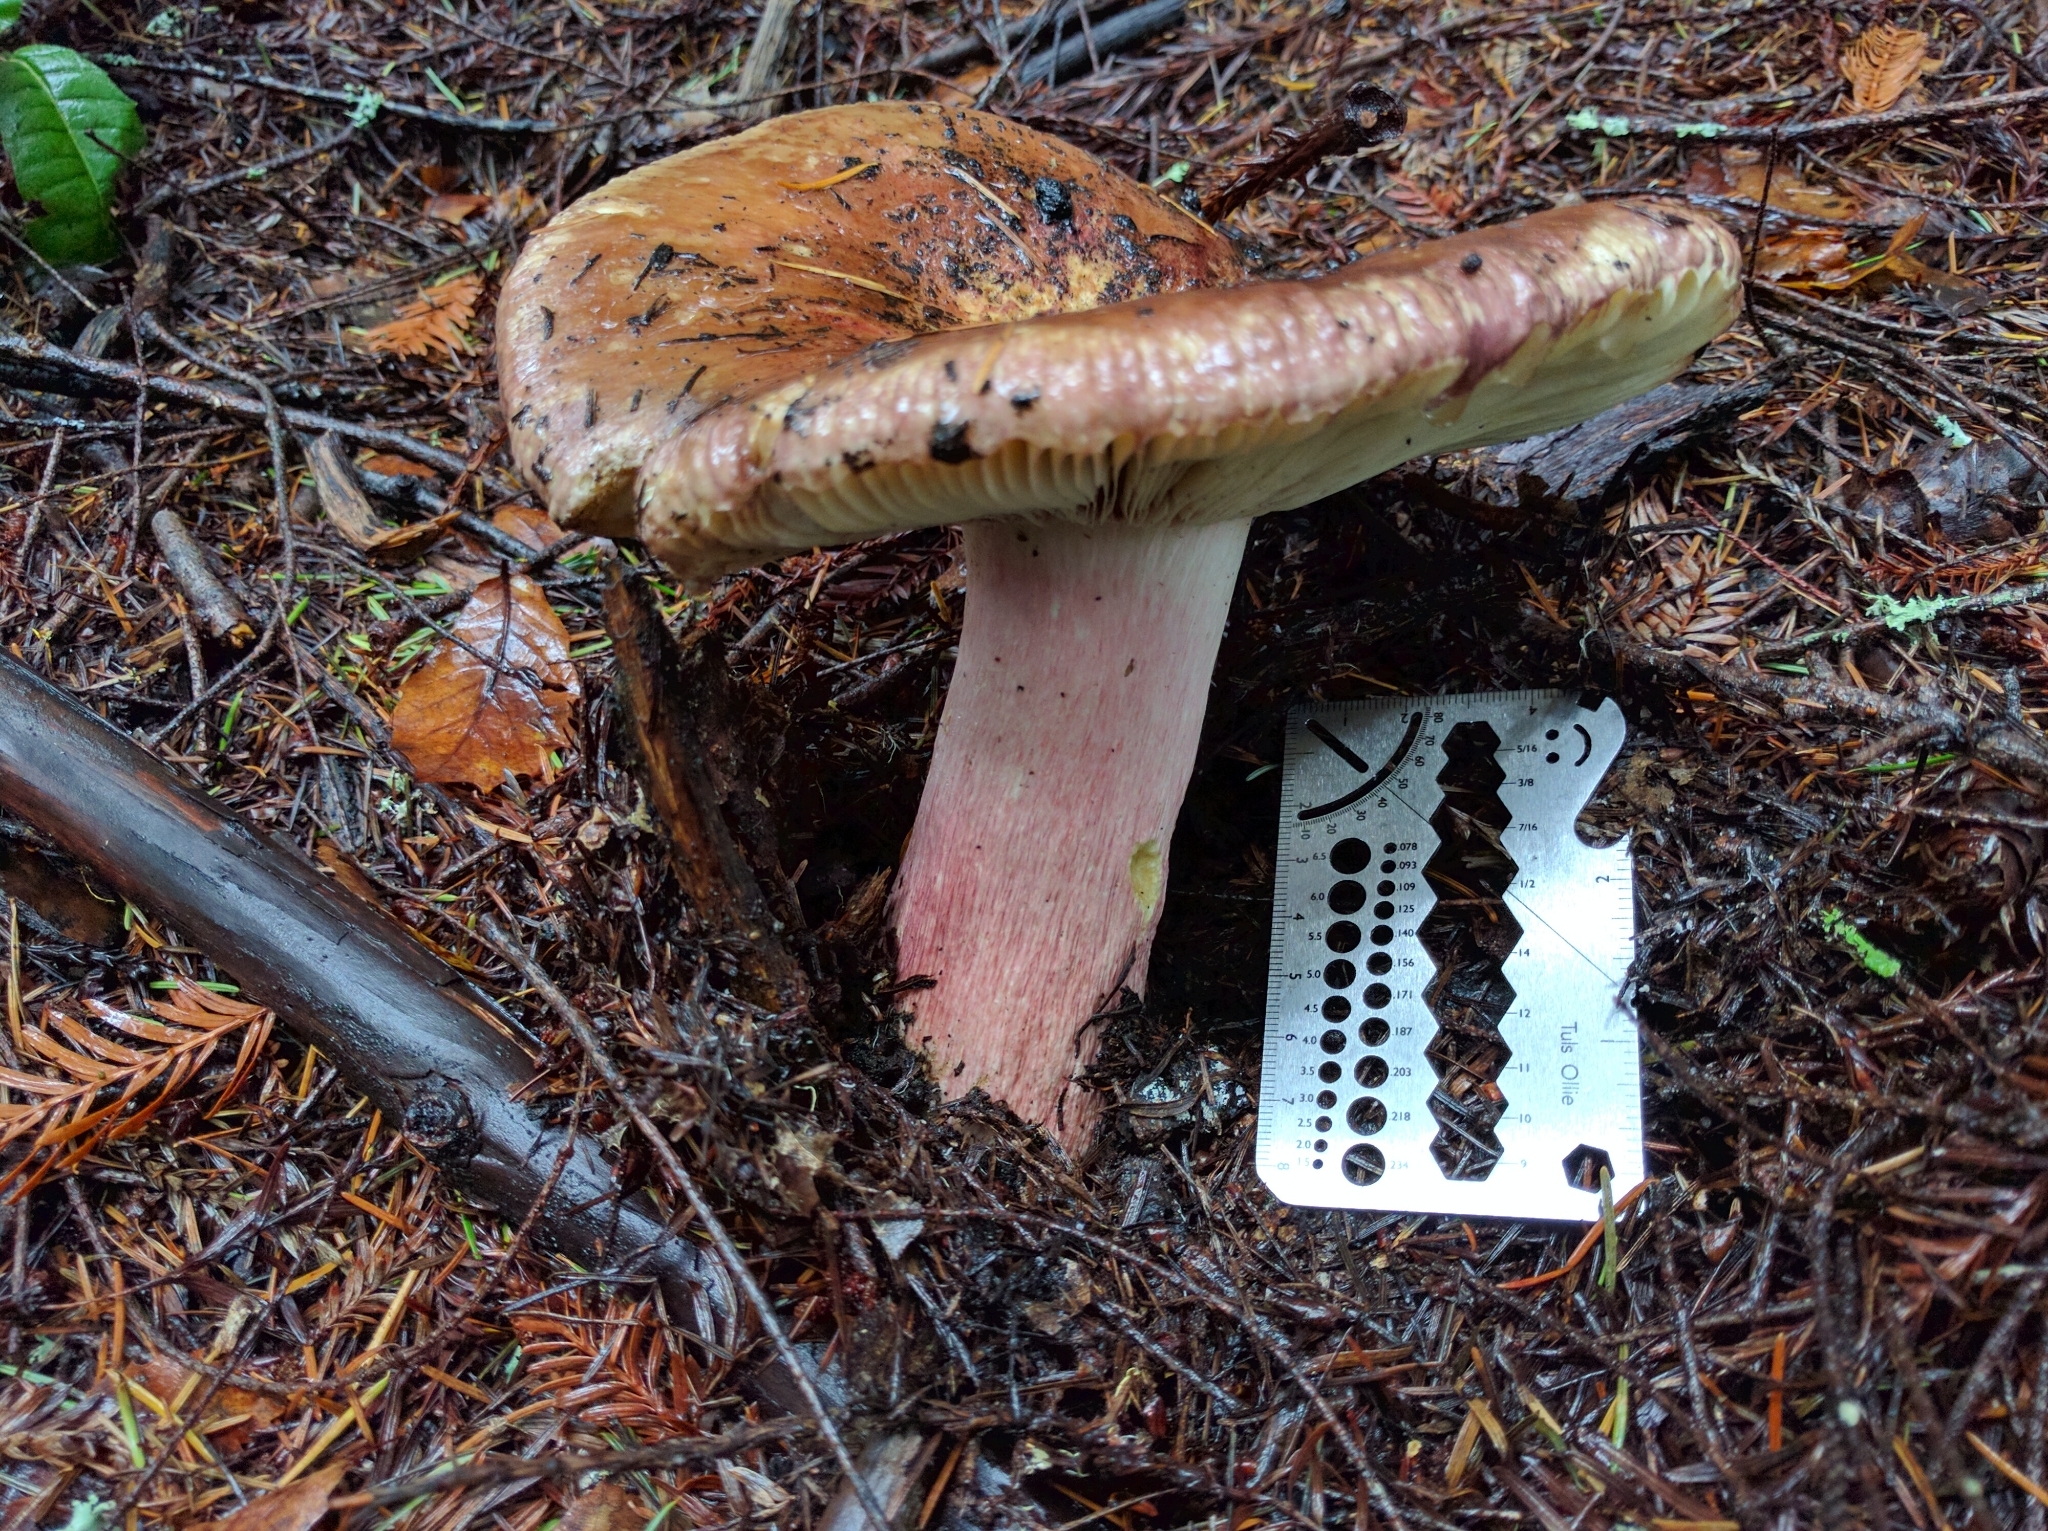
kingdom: Fungi
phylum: Basidiomycota
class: Agaricomycetes
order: Russulales
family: Russulaceae
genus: Russula
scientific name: Russula xerampelina
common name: Crab brittlegill
